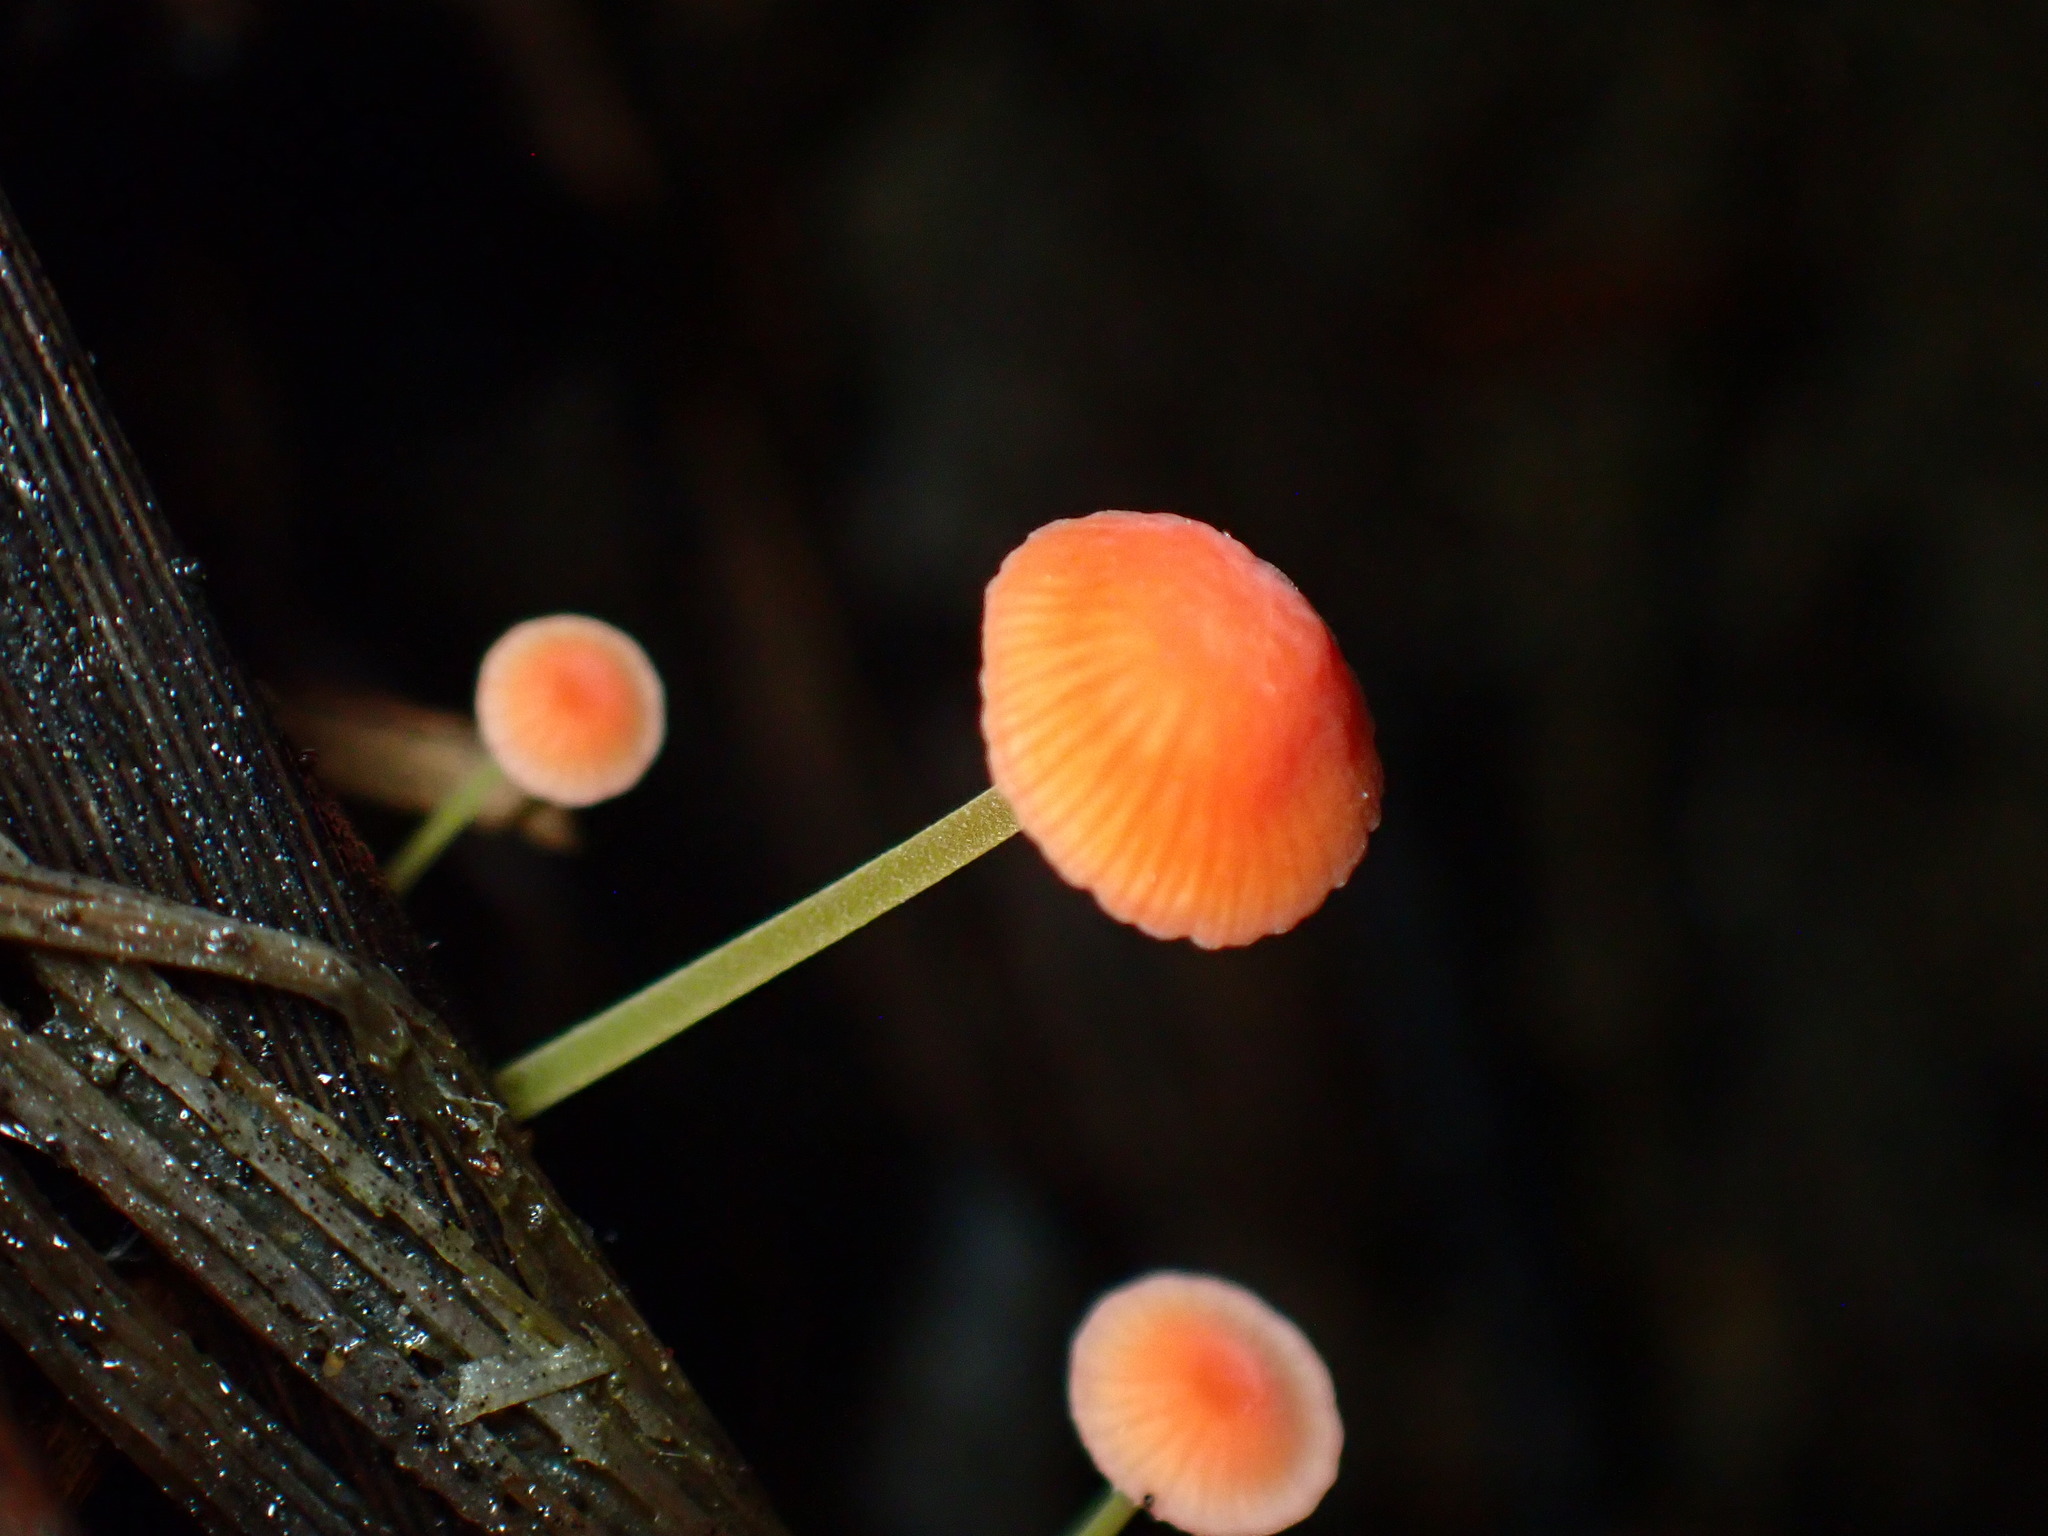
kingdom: Fungi
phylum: Basidiomycota
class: Agaricomycetes
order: Agaricales
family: Mycenaceae
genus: Mycena
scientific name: Mycena acicula
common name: Orange bonnet
